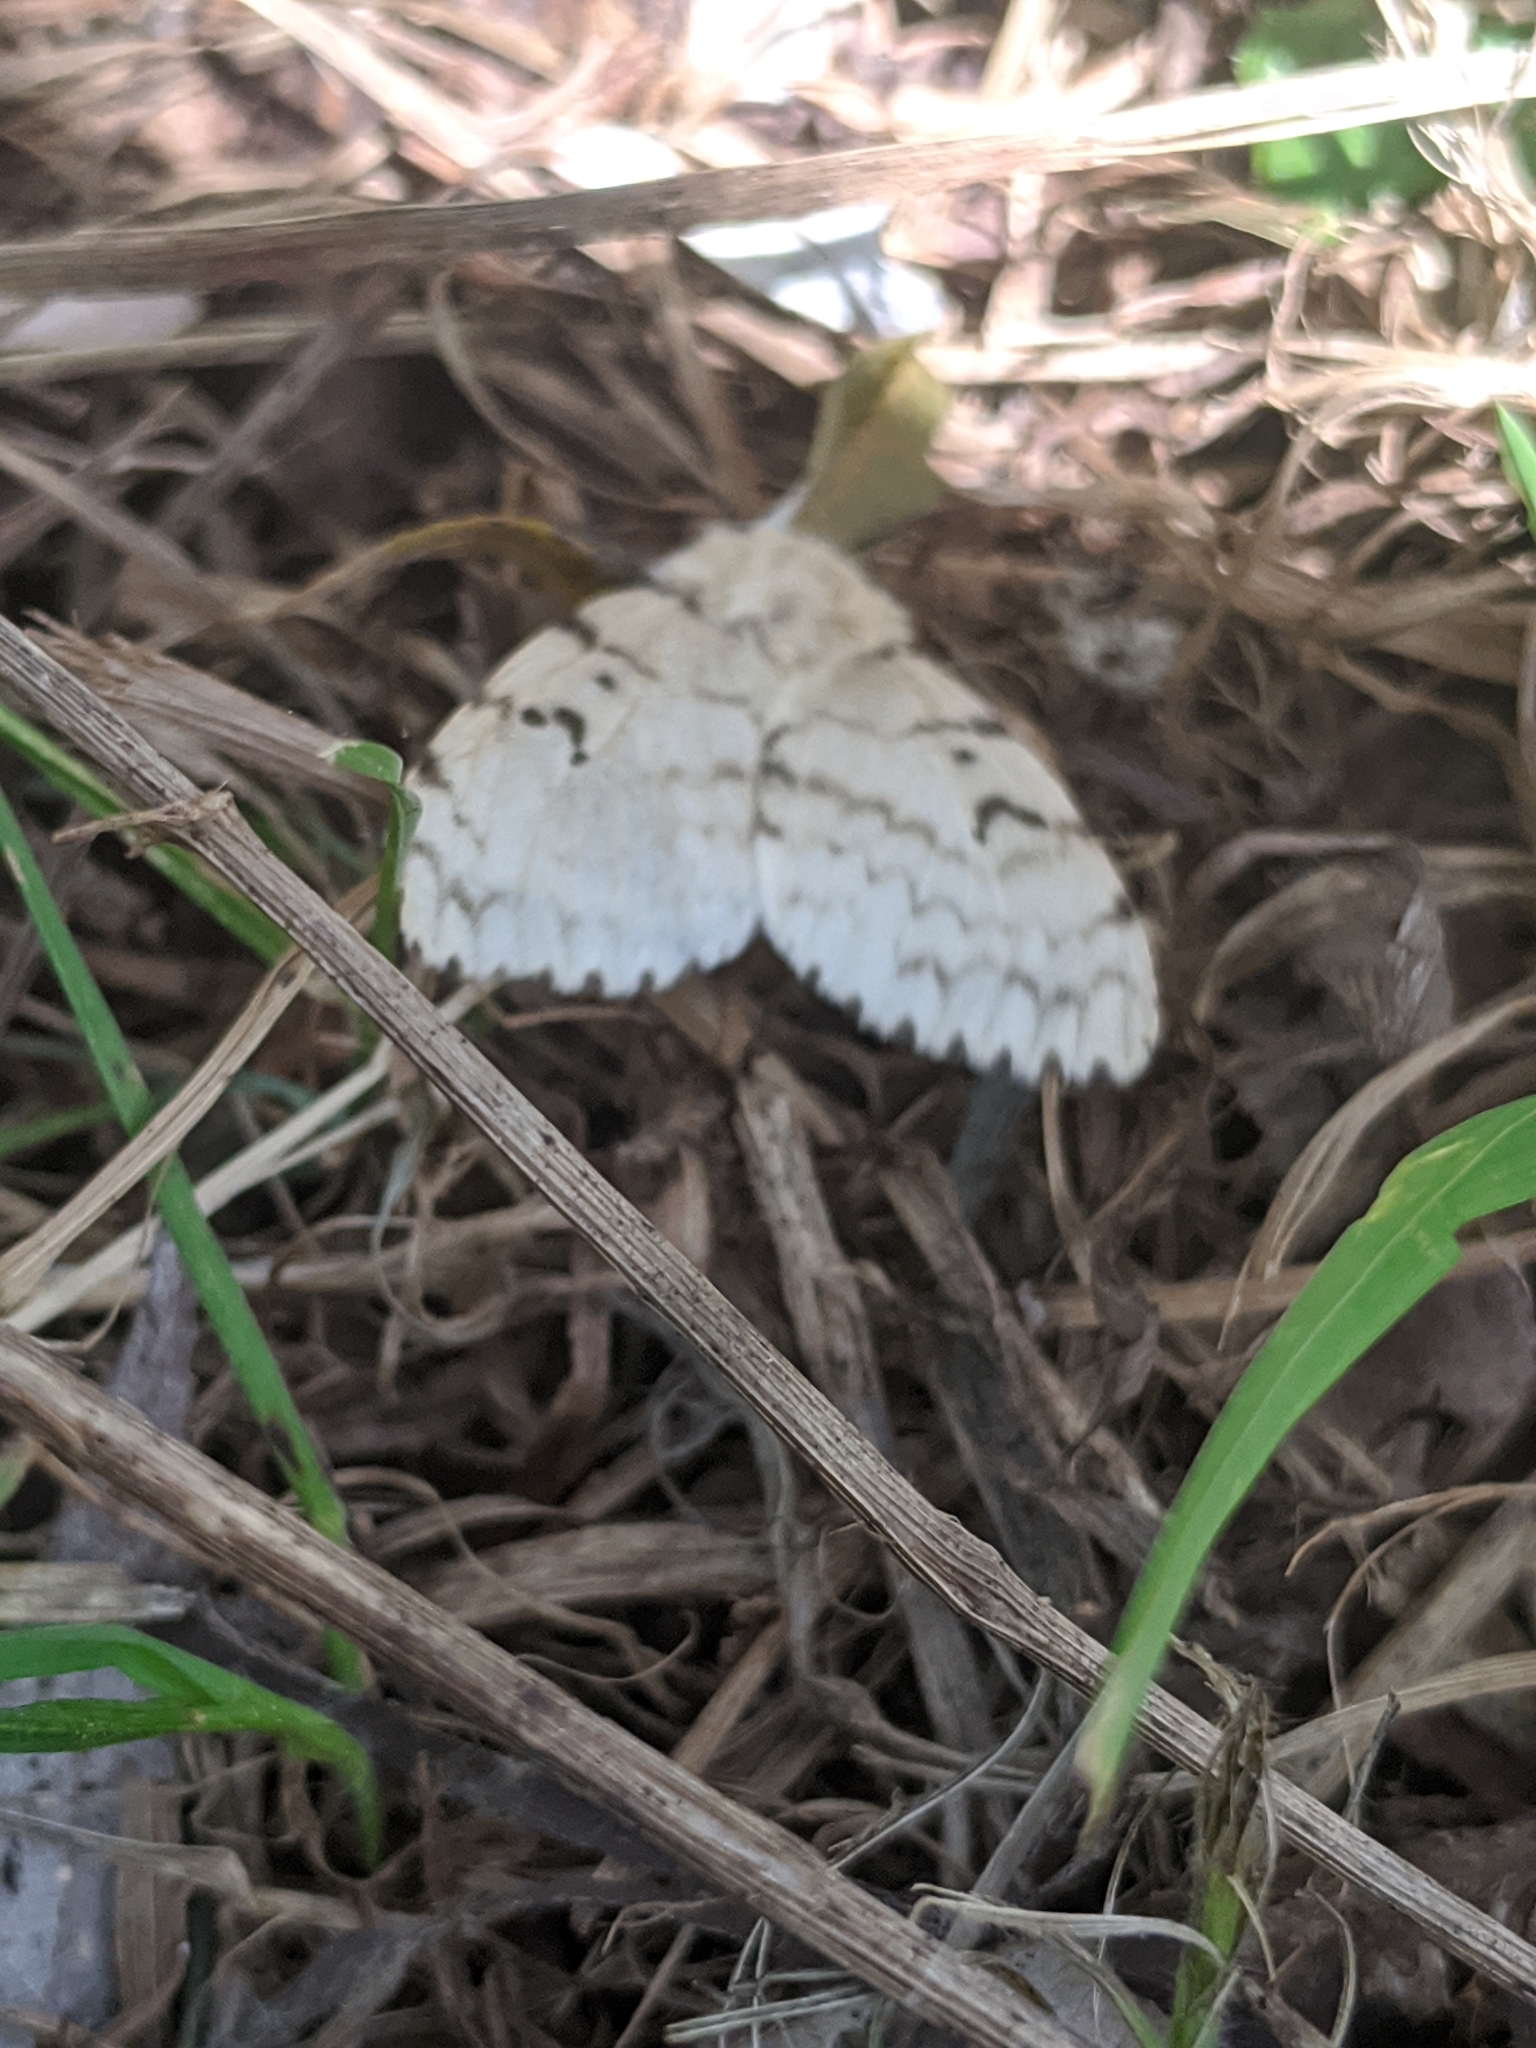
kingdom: Animalia
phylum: Arthropoda
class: Insecta
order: Lepidoptera
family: Erebidae
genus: Lymantria
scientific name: Lymantria dispar
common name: Gypsy moth
